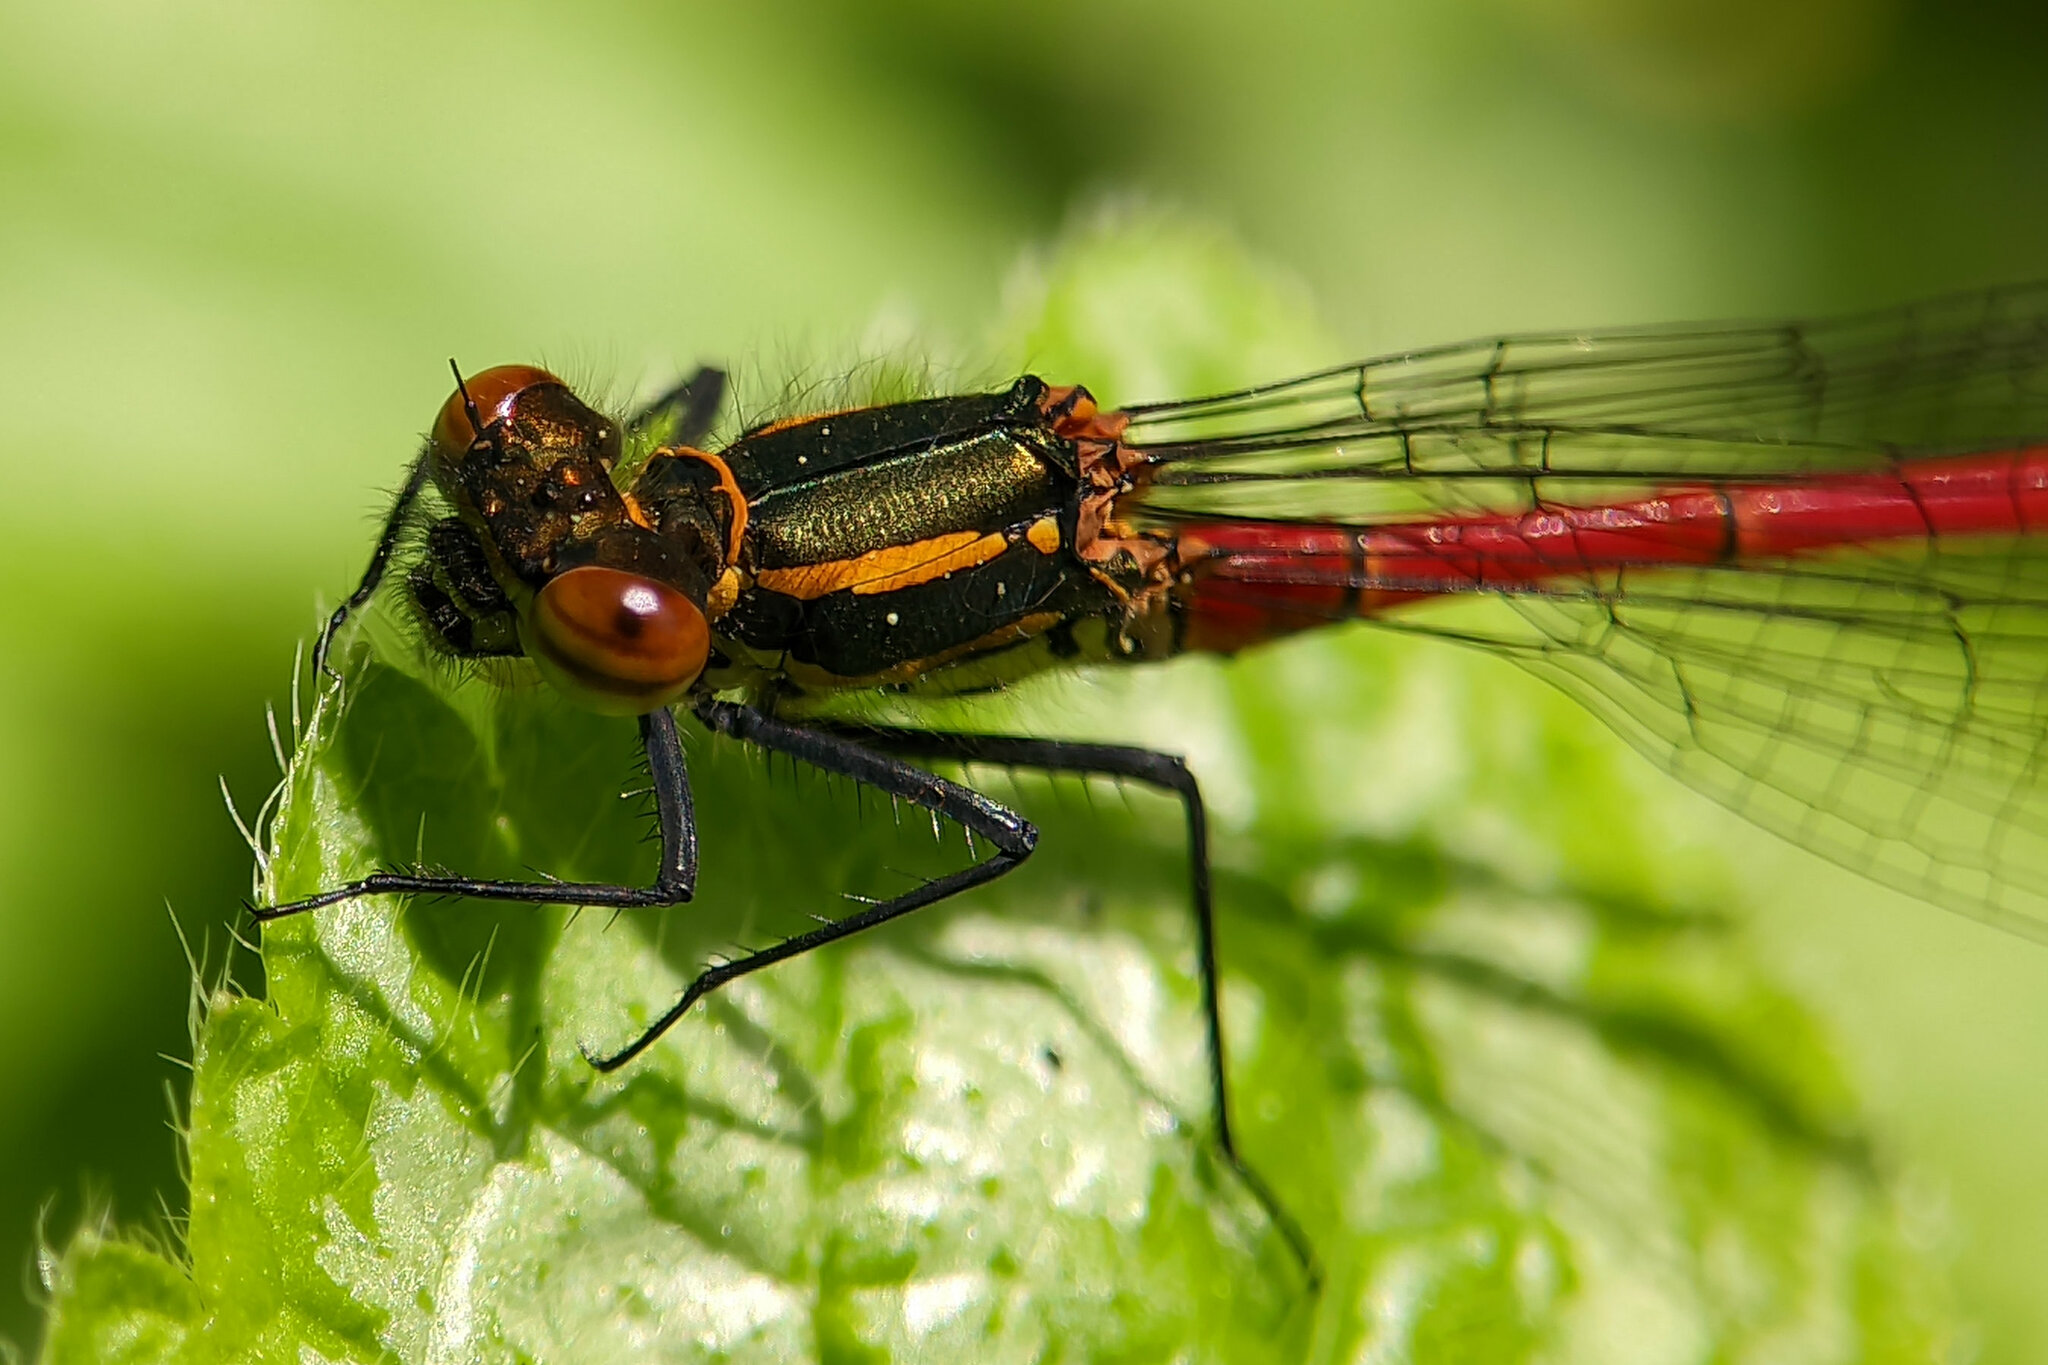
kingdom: Animalia
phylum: Arthropoda
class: Insecta
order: Odonata
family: Coenagrionidae
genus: Pyrrhosoma
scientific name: Pyrrhosoma nymphula
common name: Large red damsel
